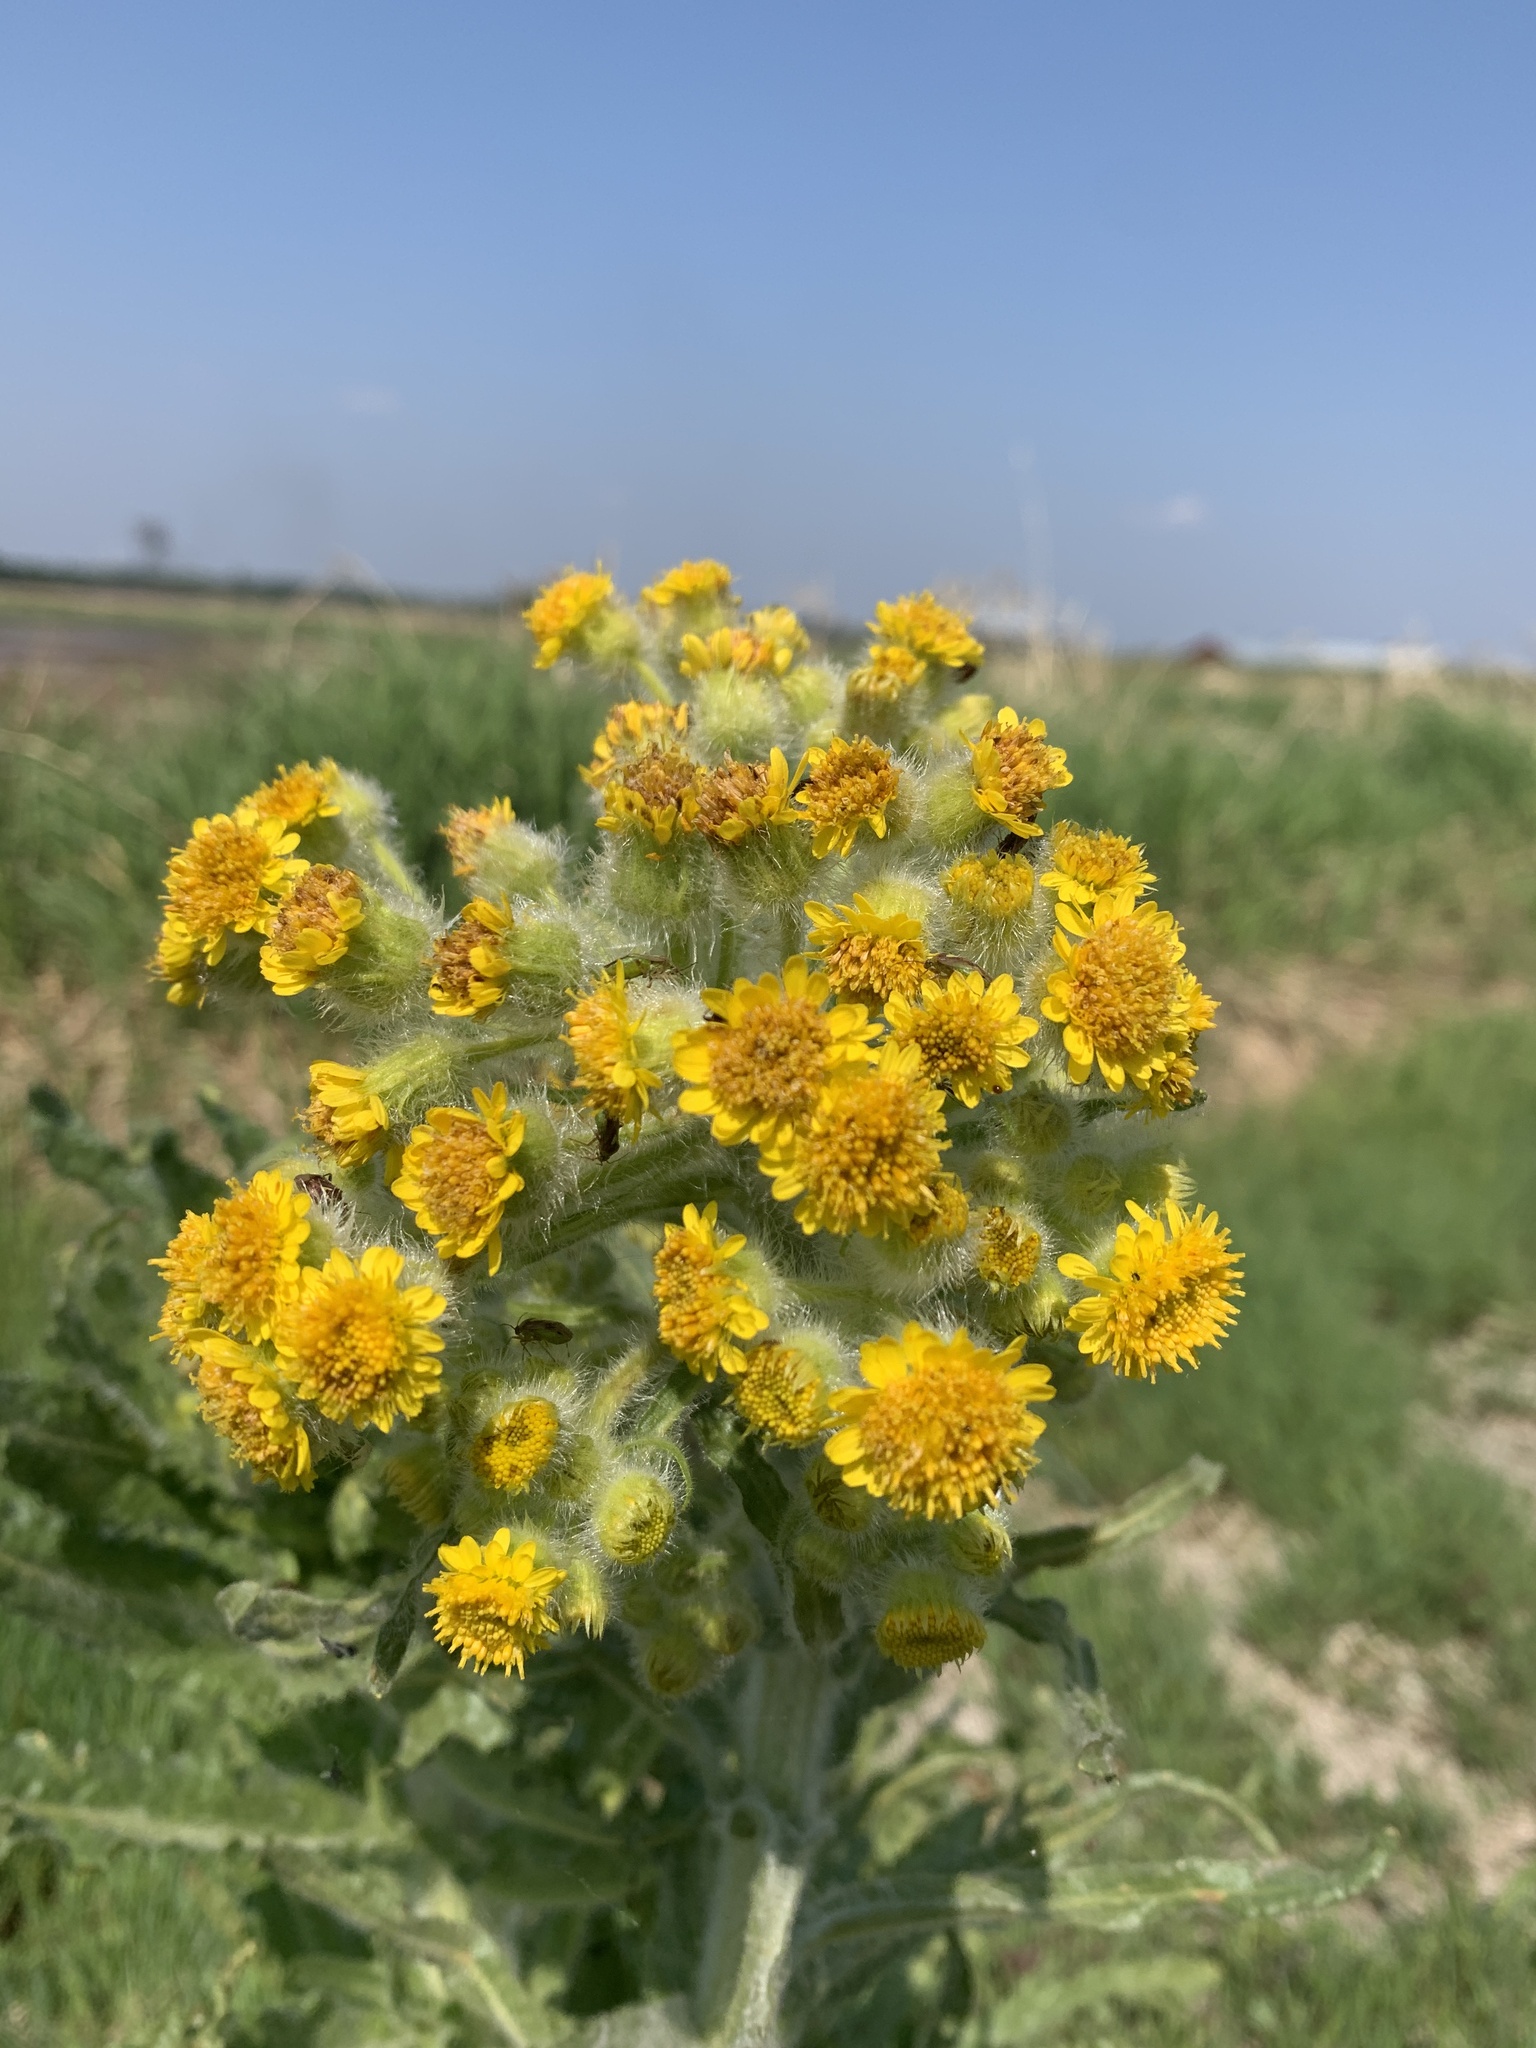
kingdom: Plantae
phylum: Tracheophyta
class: Magnoliopsida
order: Asterales
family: Asteraceae
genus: Tephroseris
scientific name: Tephroseris palustris
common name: Marsh fleawort
